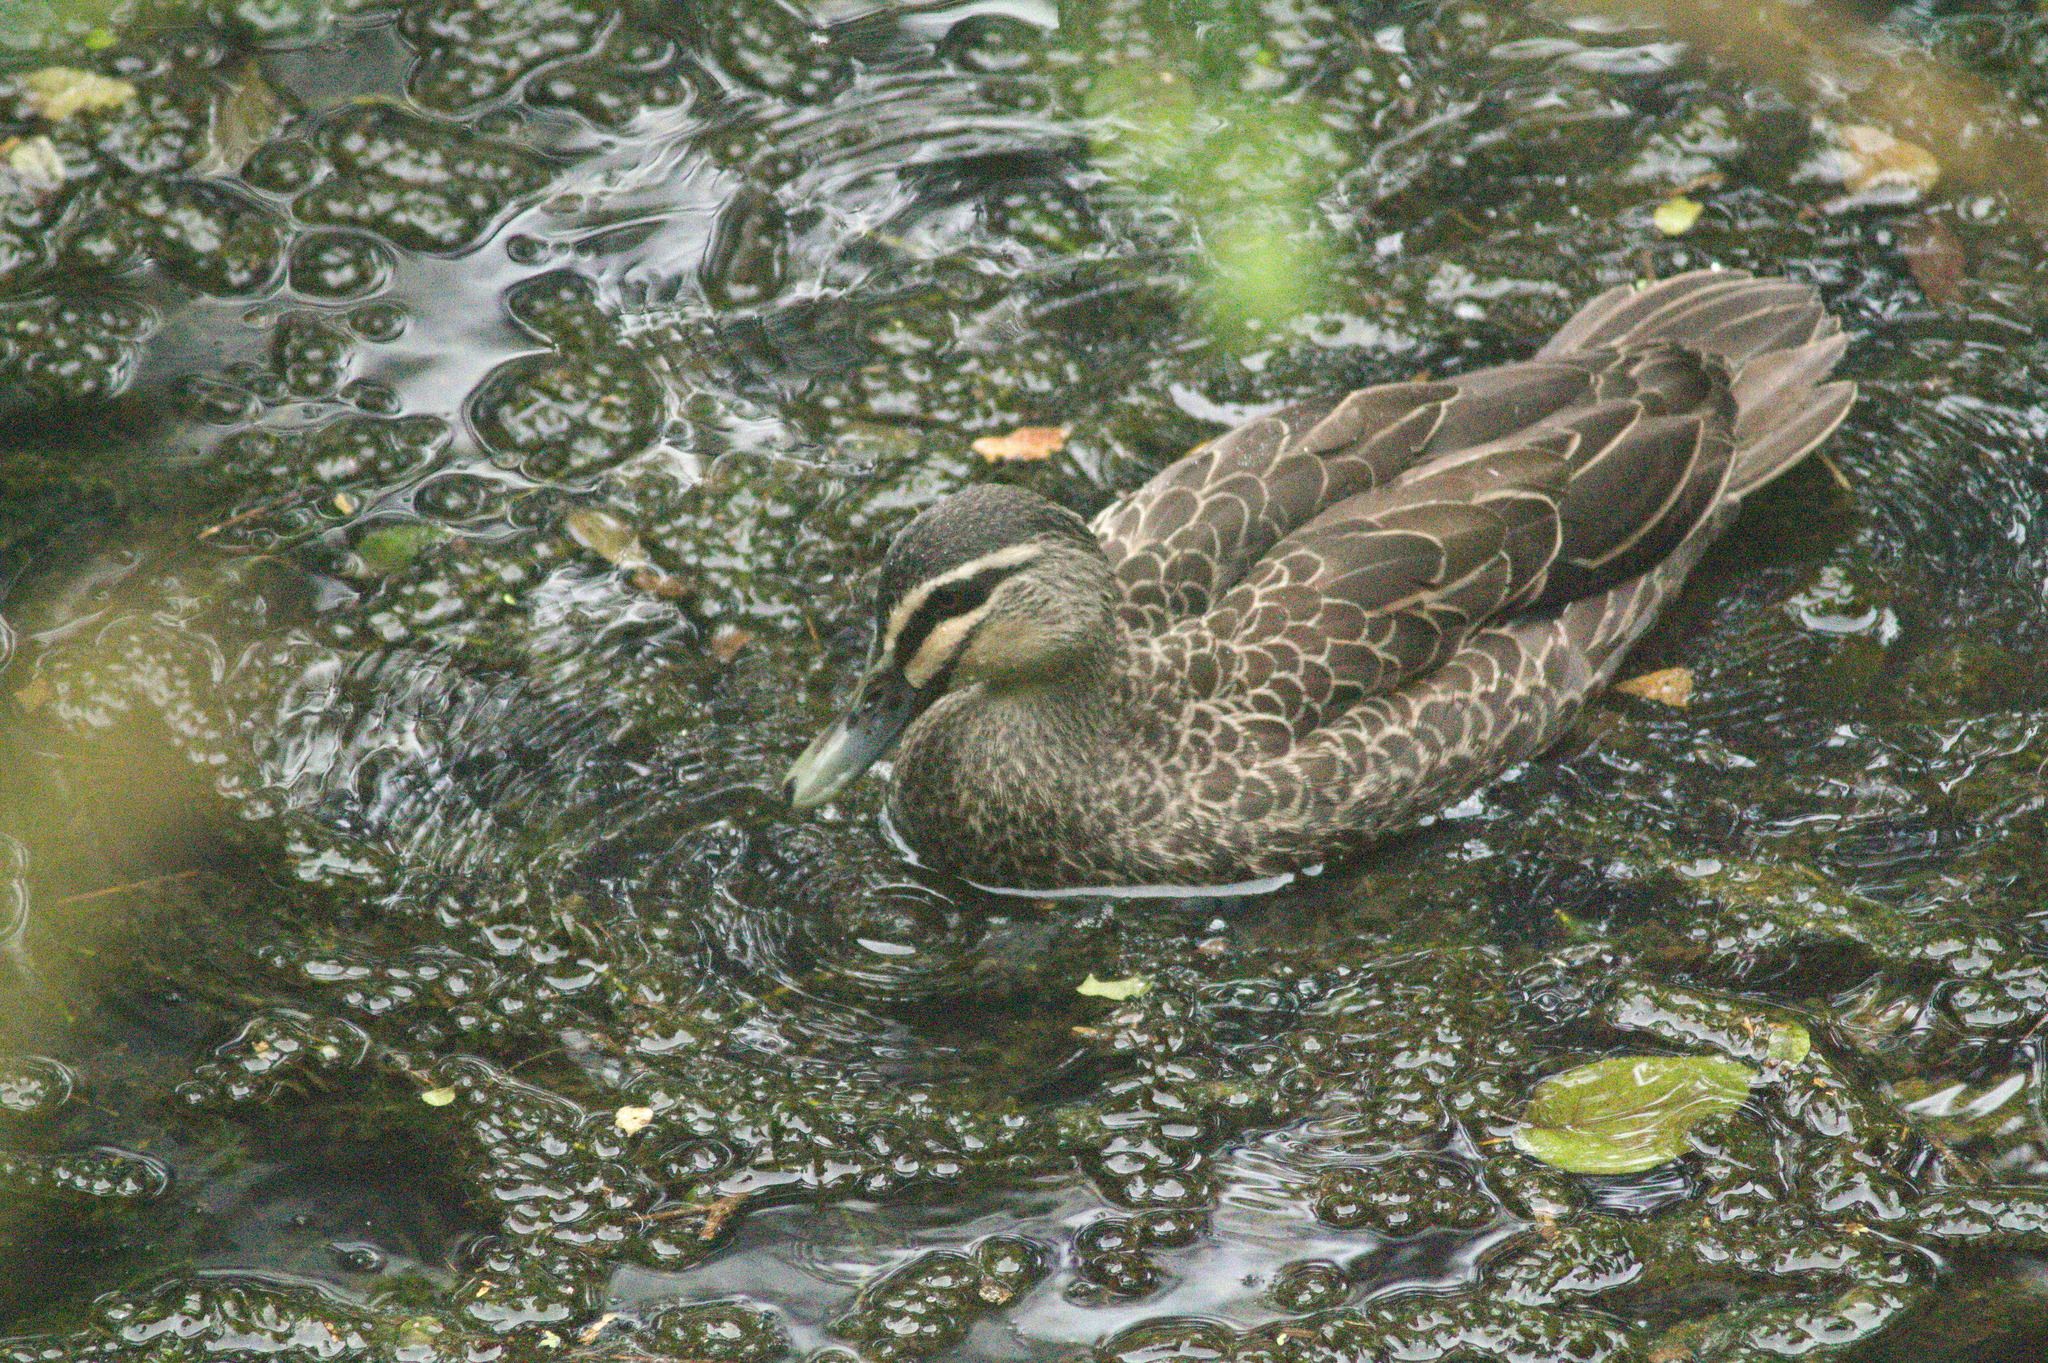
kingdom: Animalia
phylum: Chordata
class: Aves
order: Anseriformes
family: Anatidae
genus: Anas
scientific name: Anas superciliosa
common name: Pacific black duck
